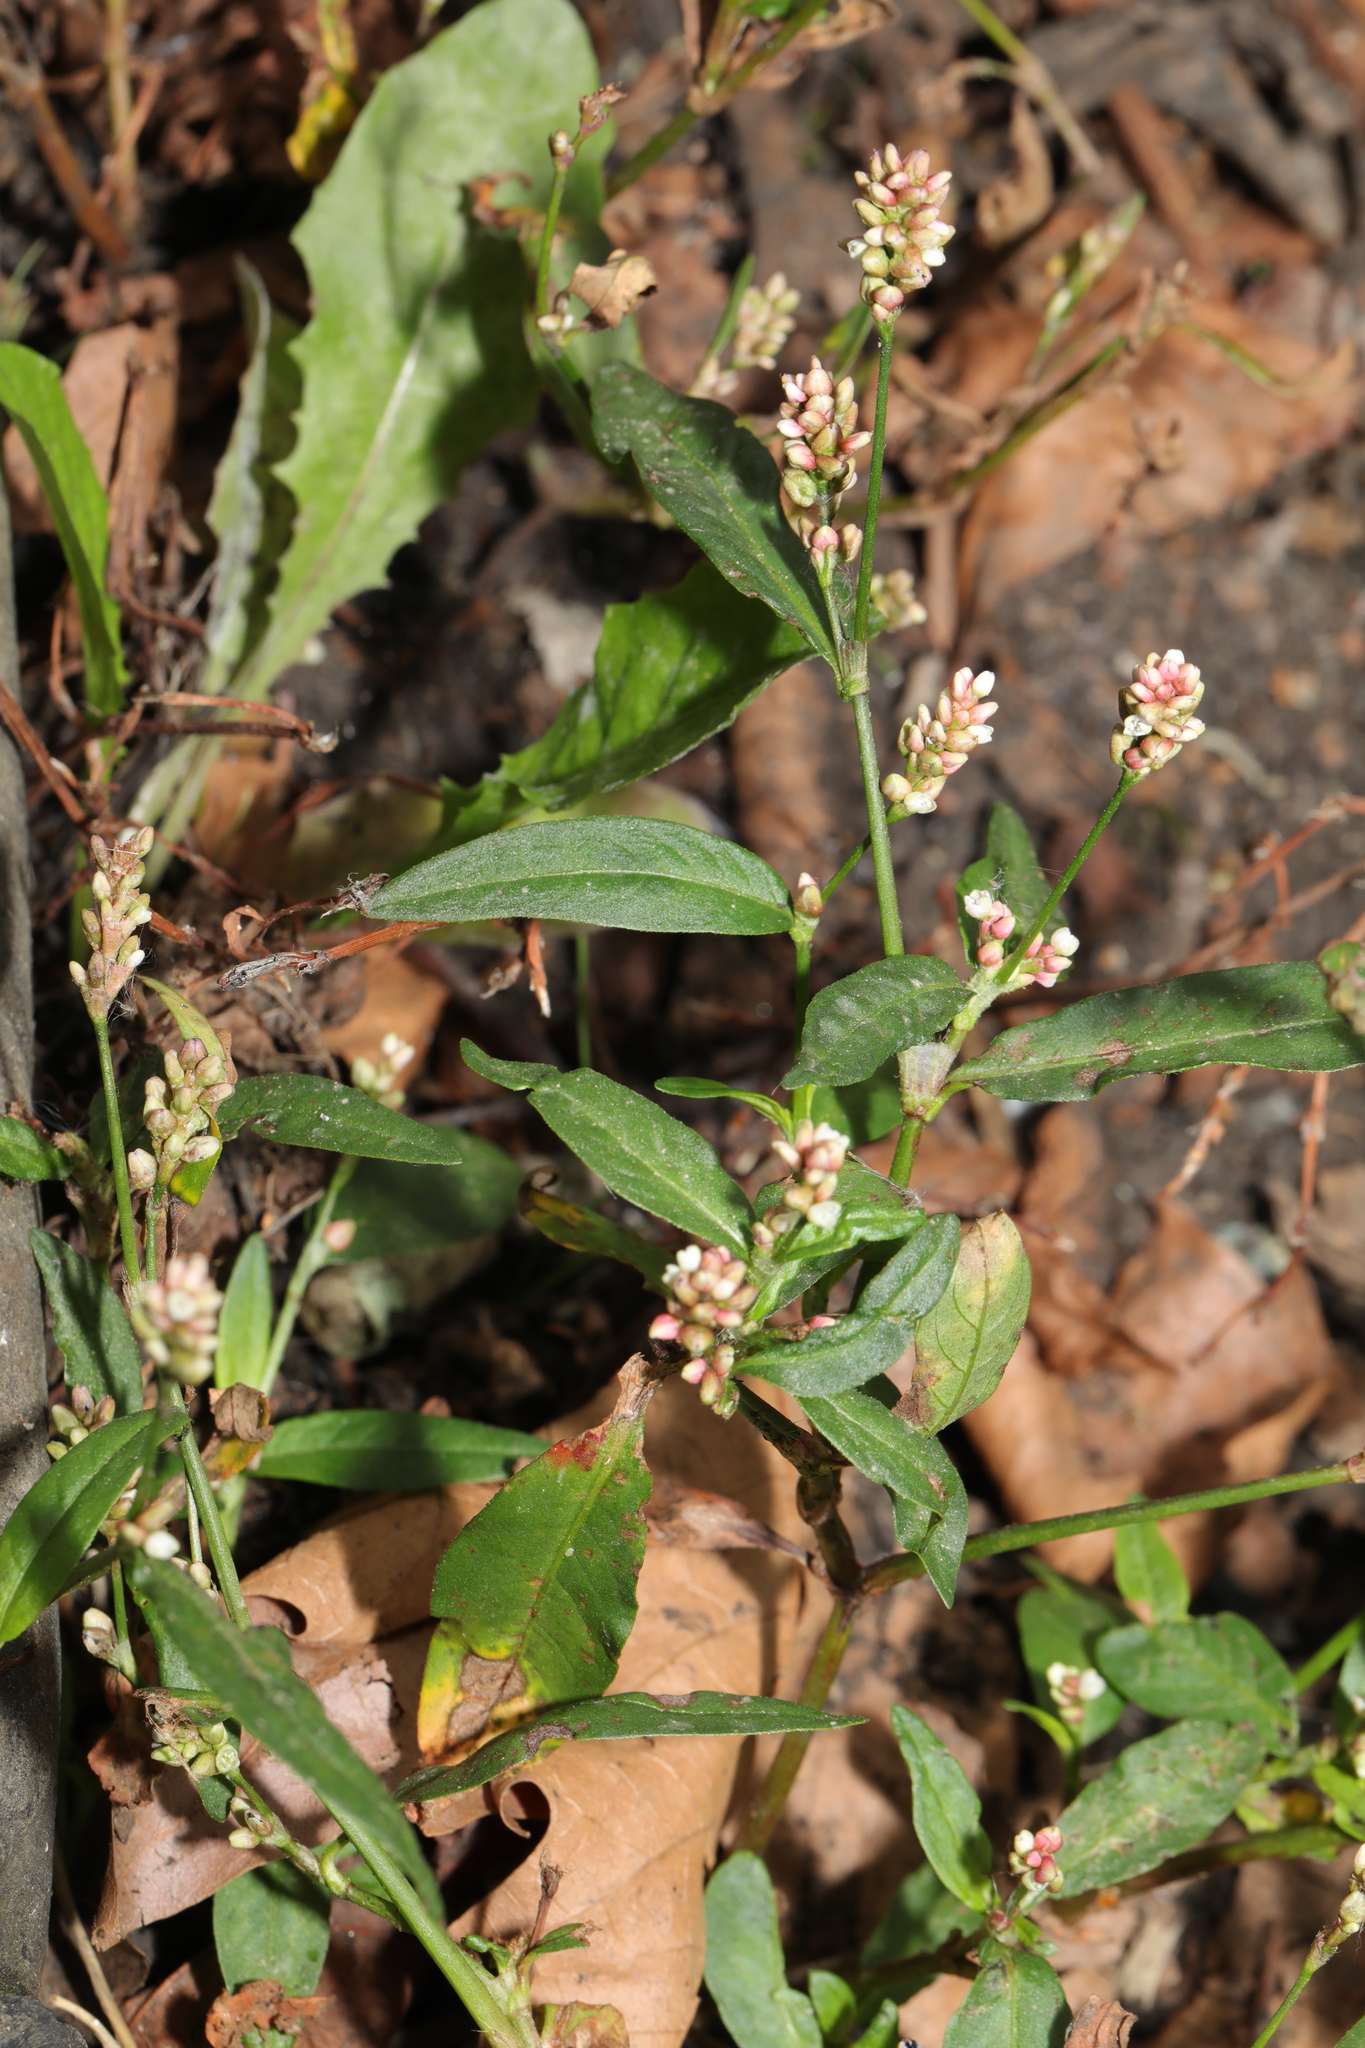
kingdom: Plantae
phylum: Tracheophyta
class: Magnoliopsida
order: Caryophyllales
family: Polygonaceae
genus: Persicaria
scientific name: Persicaria maculosa
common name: Redshank
